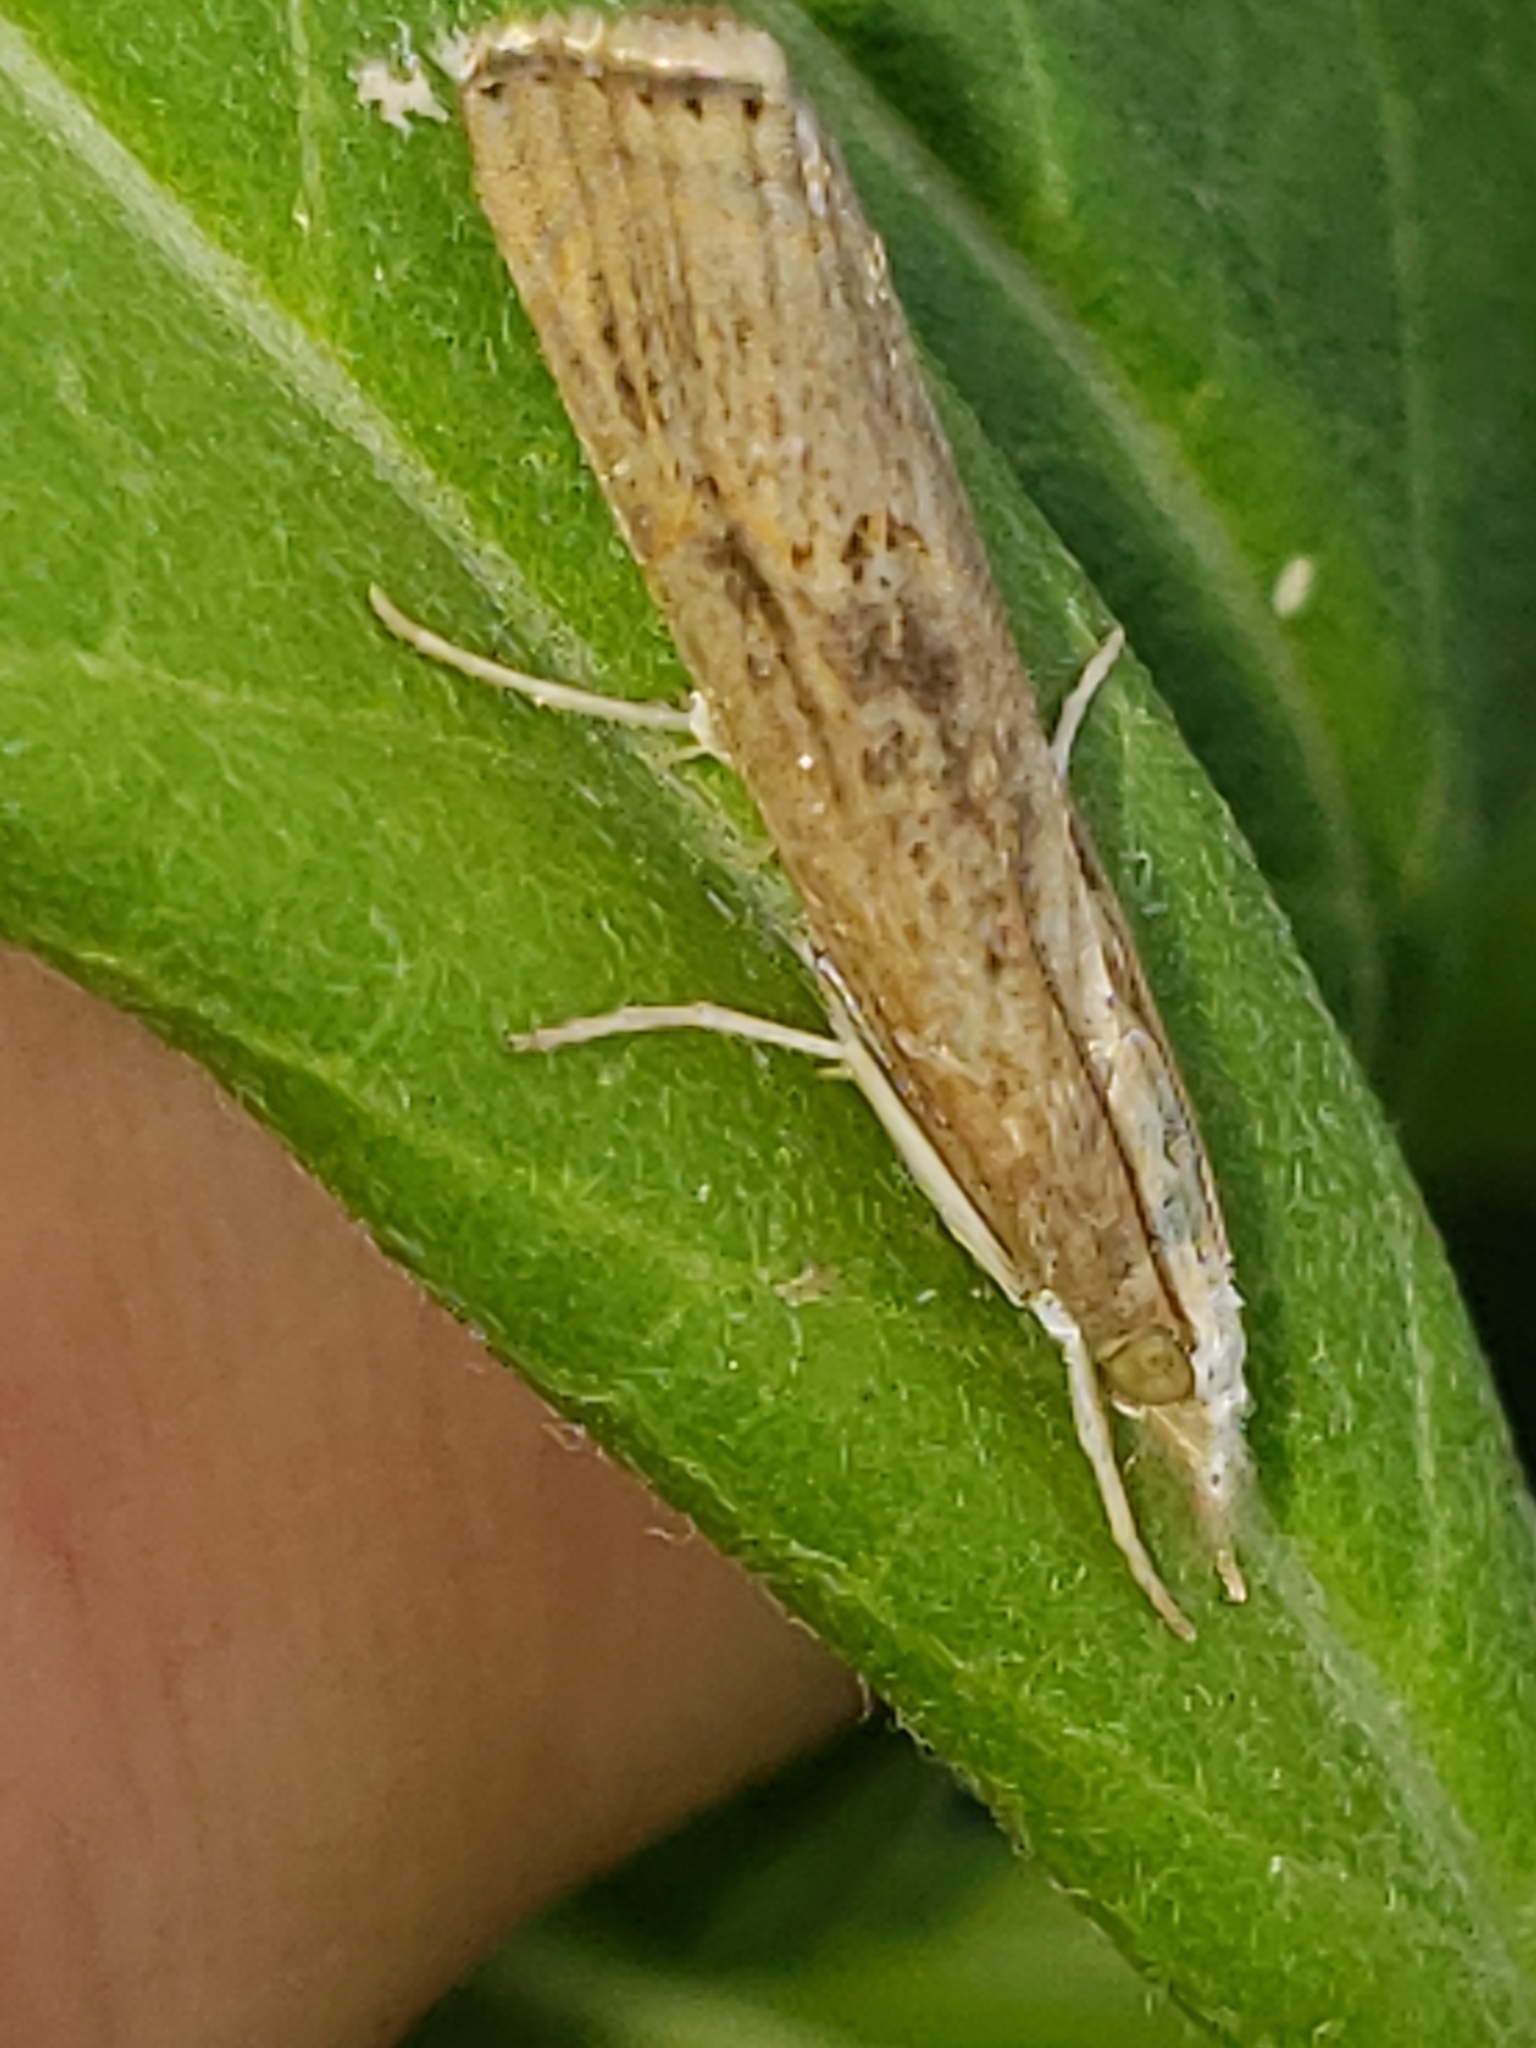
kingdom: Animalia
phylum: Arthropoda
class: Insecta
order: Lepidoptera
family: Crambidae
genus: Parapediasia
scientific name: Parapediasia teterellus
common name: Bluegrass webworm moth
